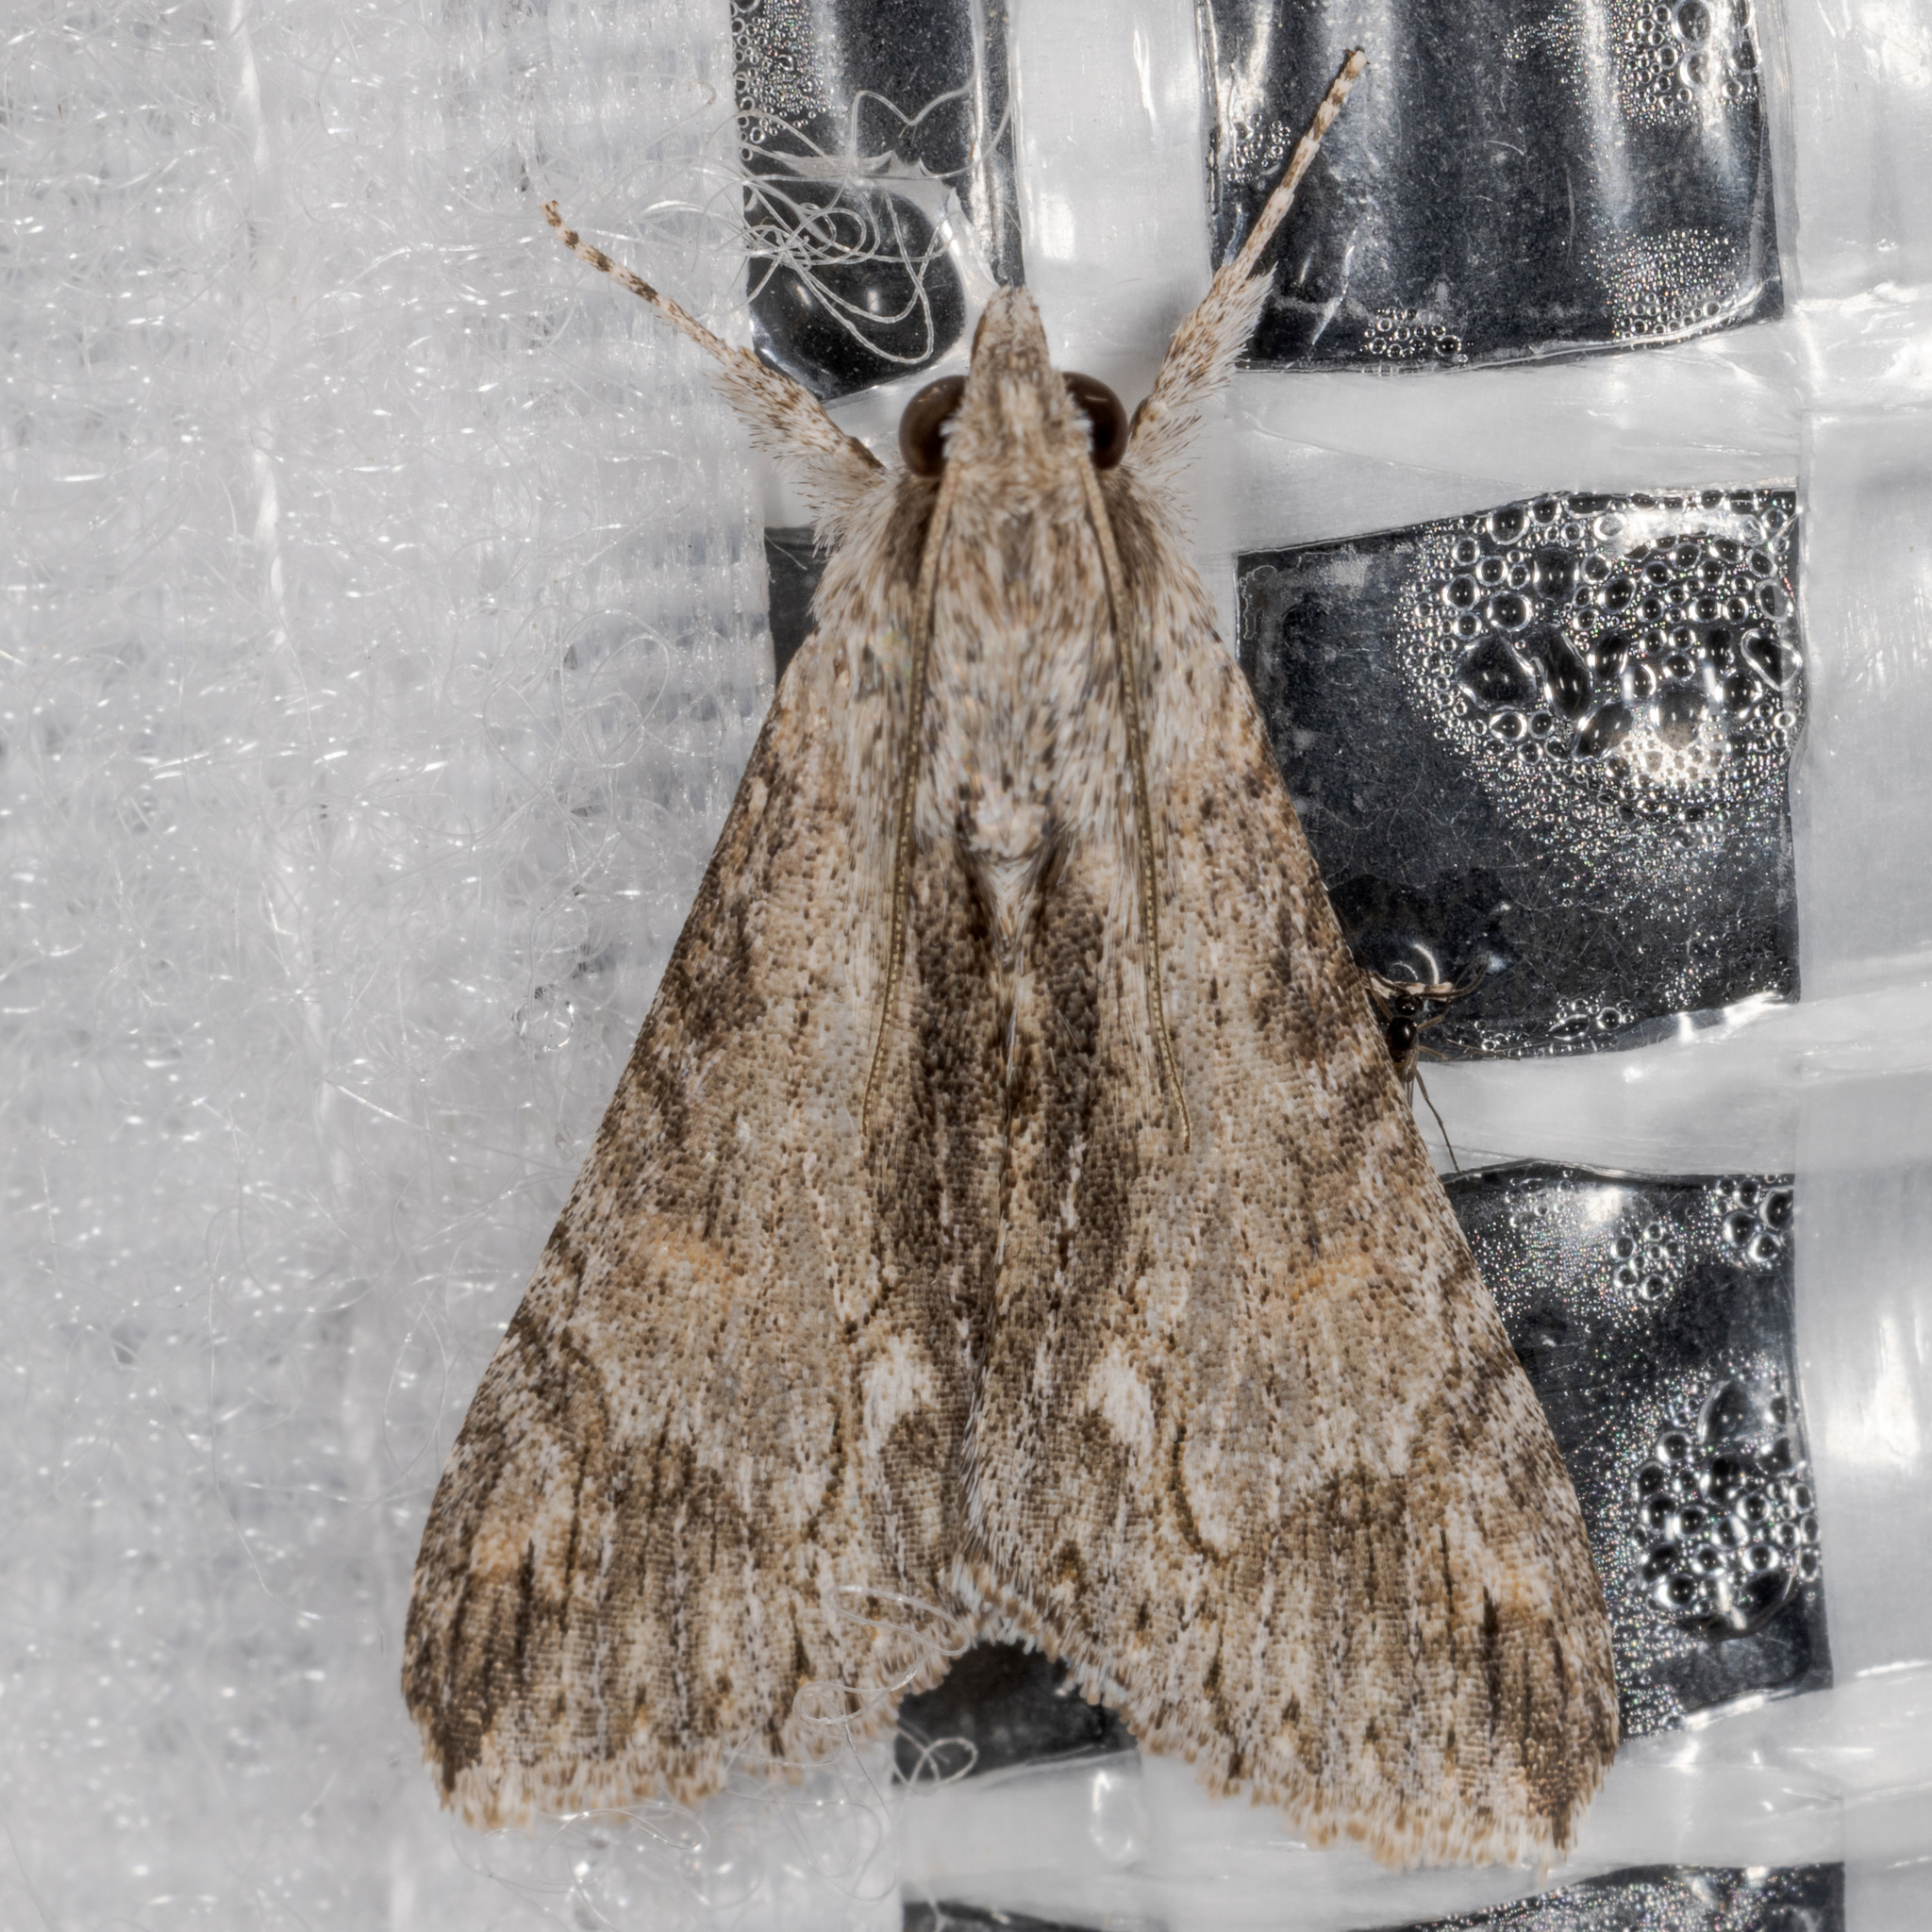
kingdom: Animalia
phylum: Arthropoda
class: Insecta
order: Lepidoptera
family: Erebidae
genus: Melipotis
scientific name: Melipotis acontioides
